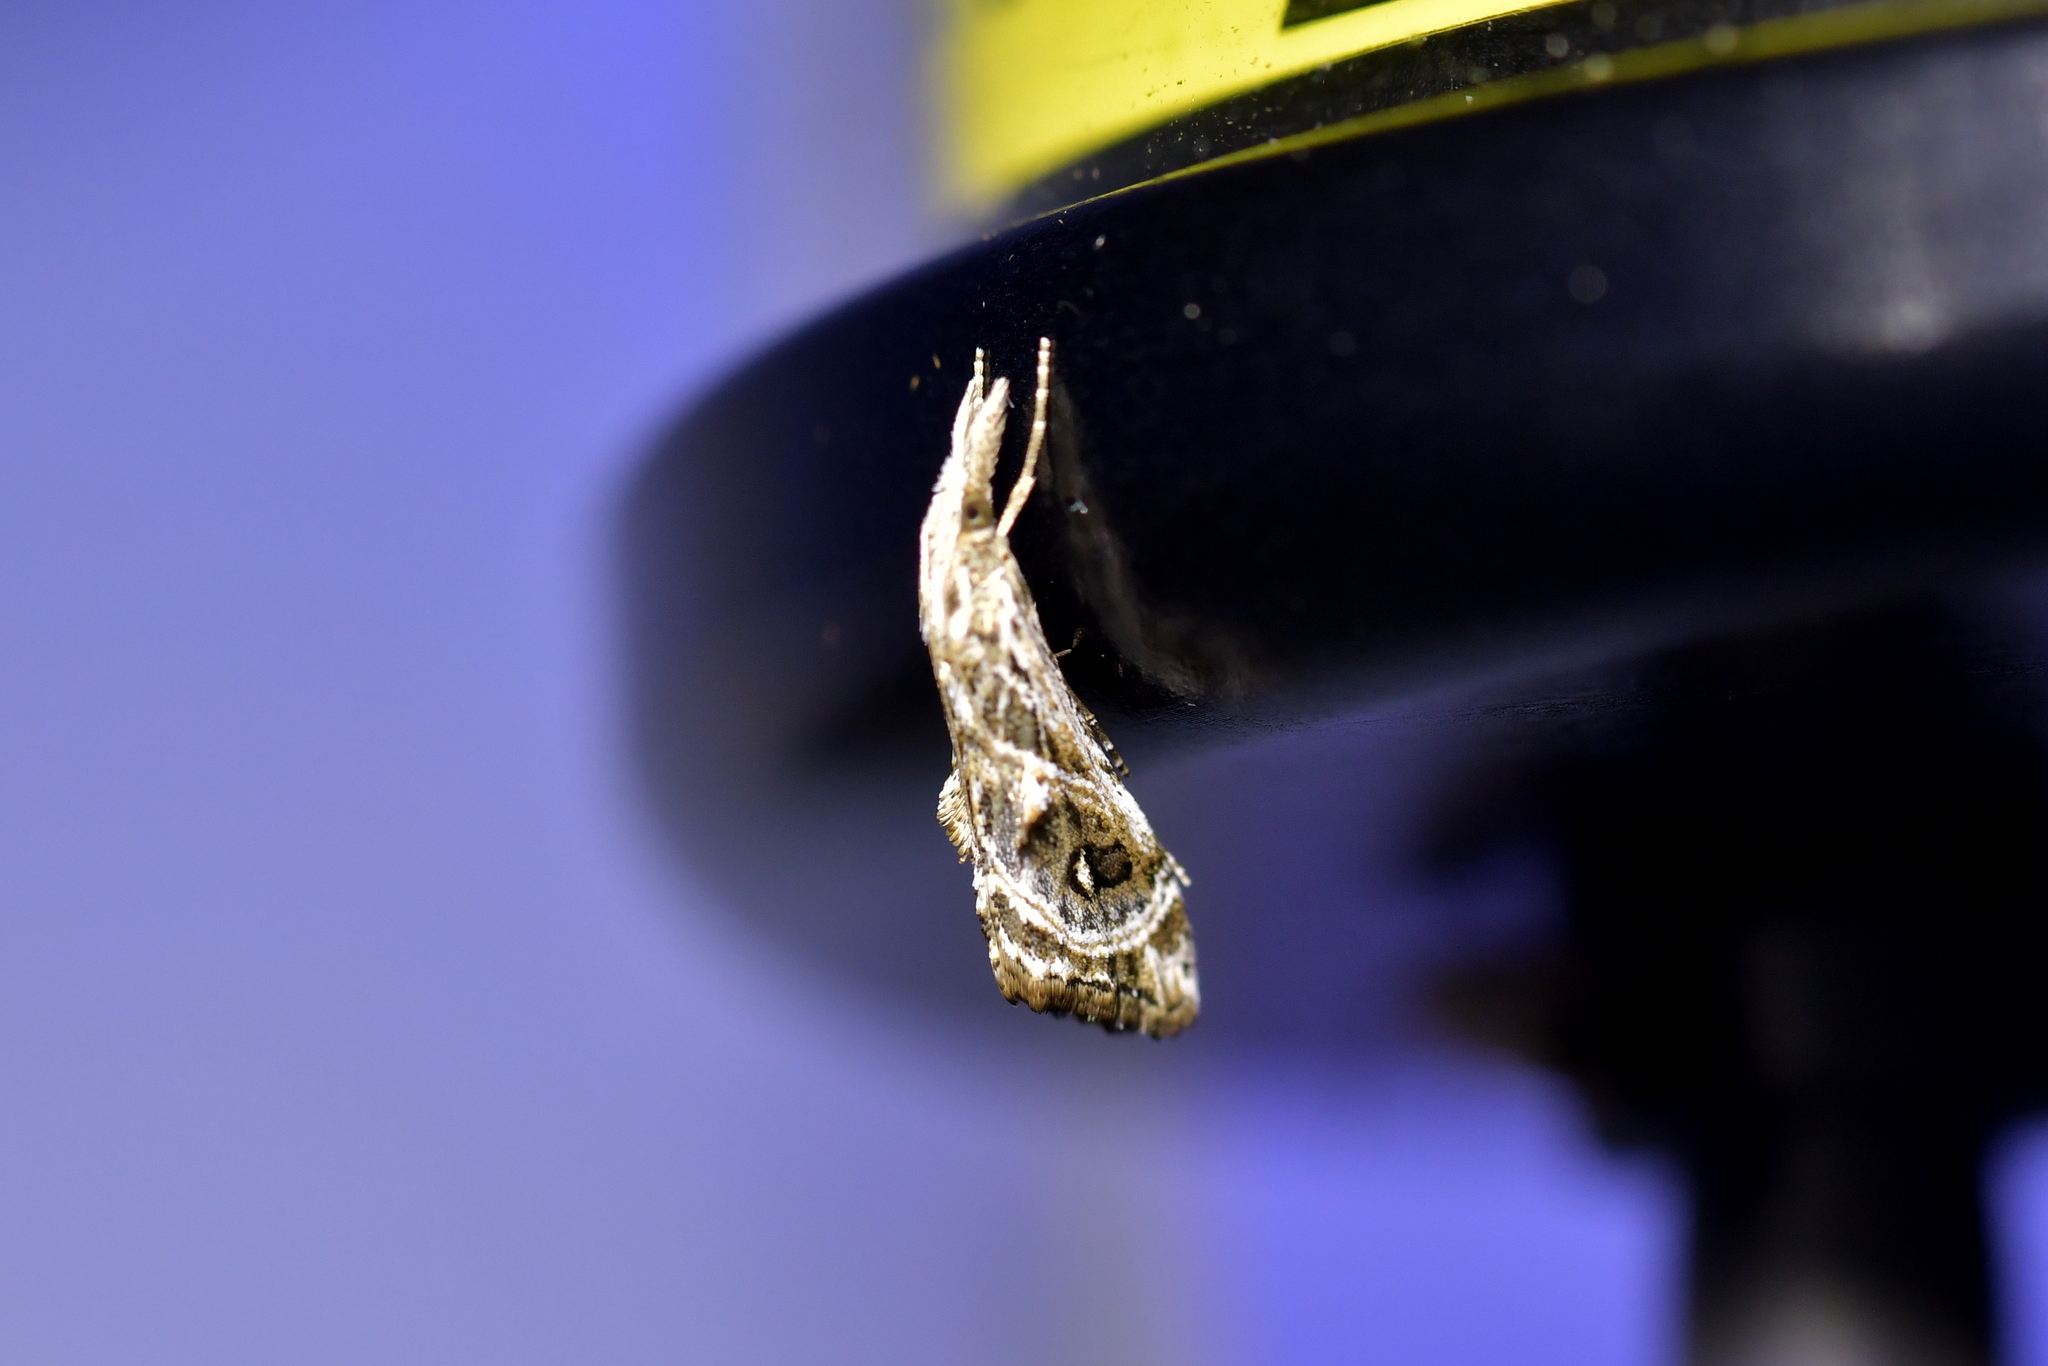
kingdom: Animalia
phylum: Arthropoda
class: Insecta
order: Lepidoptera
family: Crambidae
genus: Gadira
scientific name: Gadira acerella
